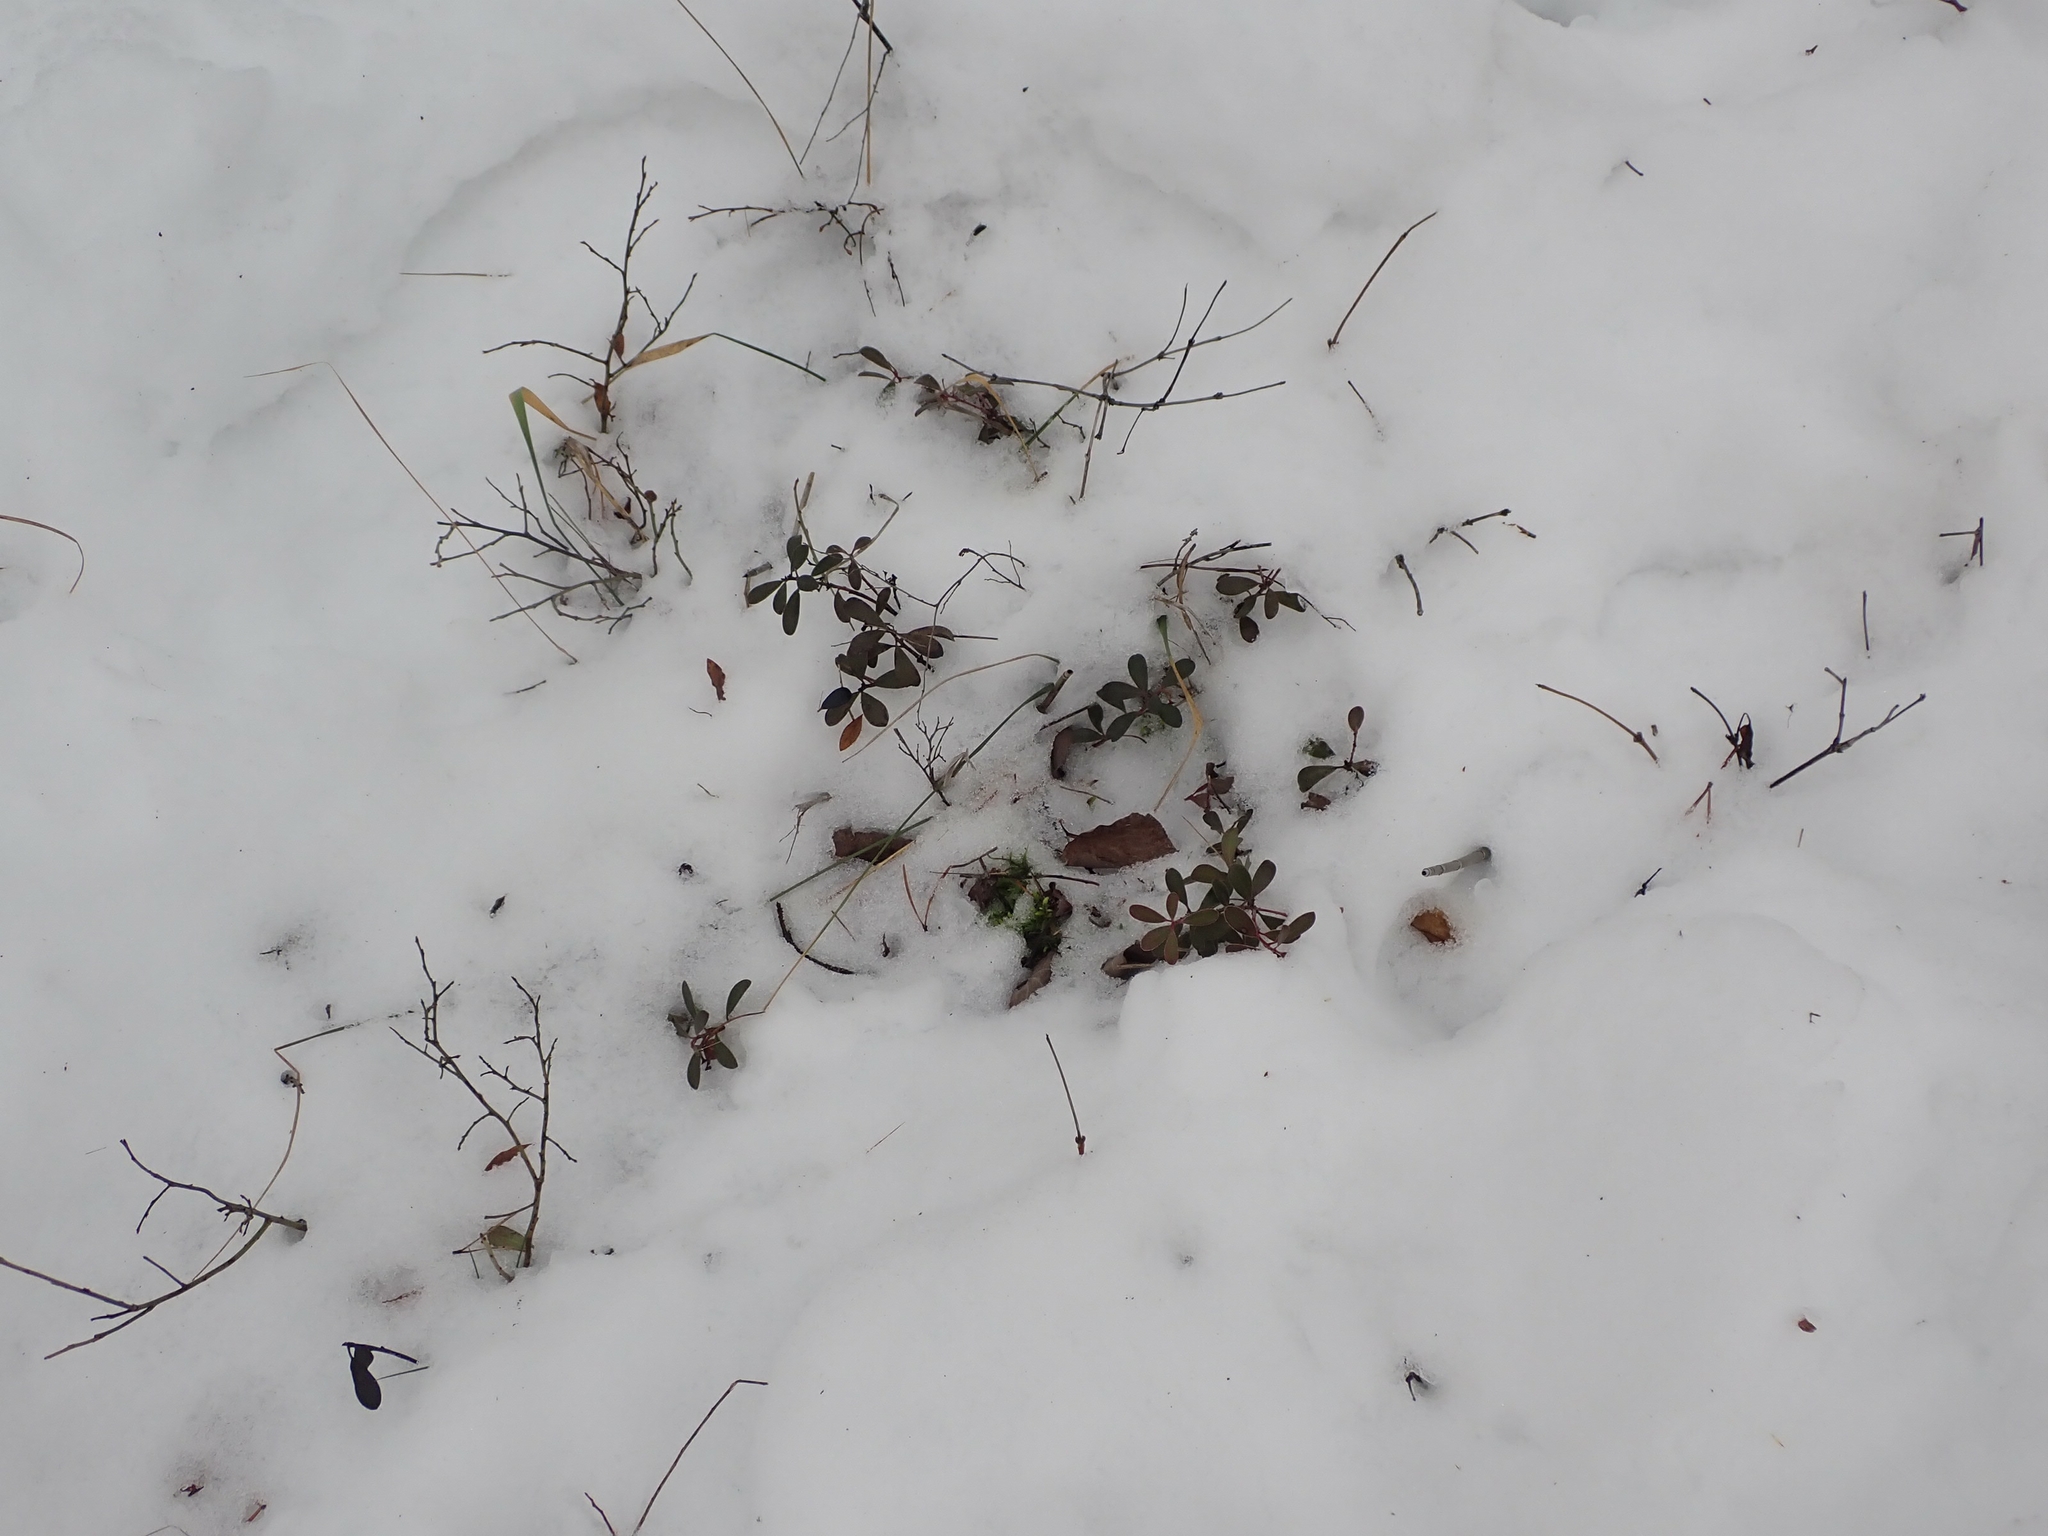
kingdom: Plantae
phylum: Tracheophyta
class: Magnoliopsida
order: Ericales
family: Ericaceae
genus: Arctostaphylos
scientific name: Arctostaphylos uva-ursi
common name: Bearberry
